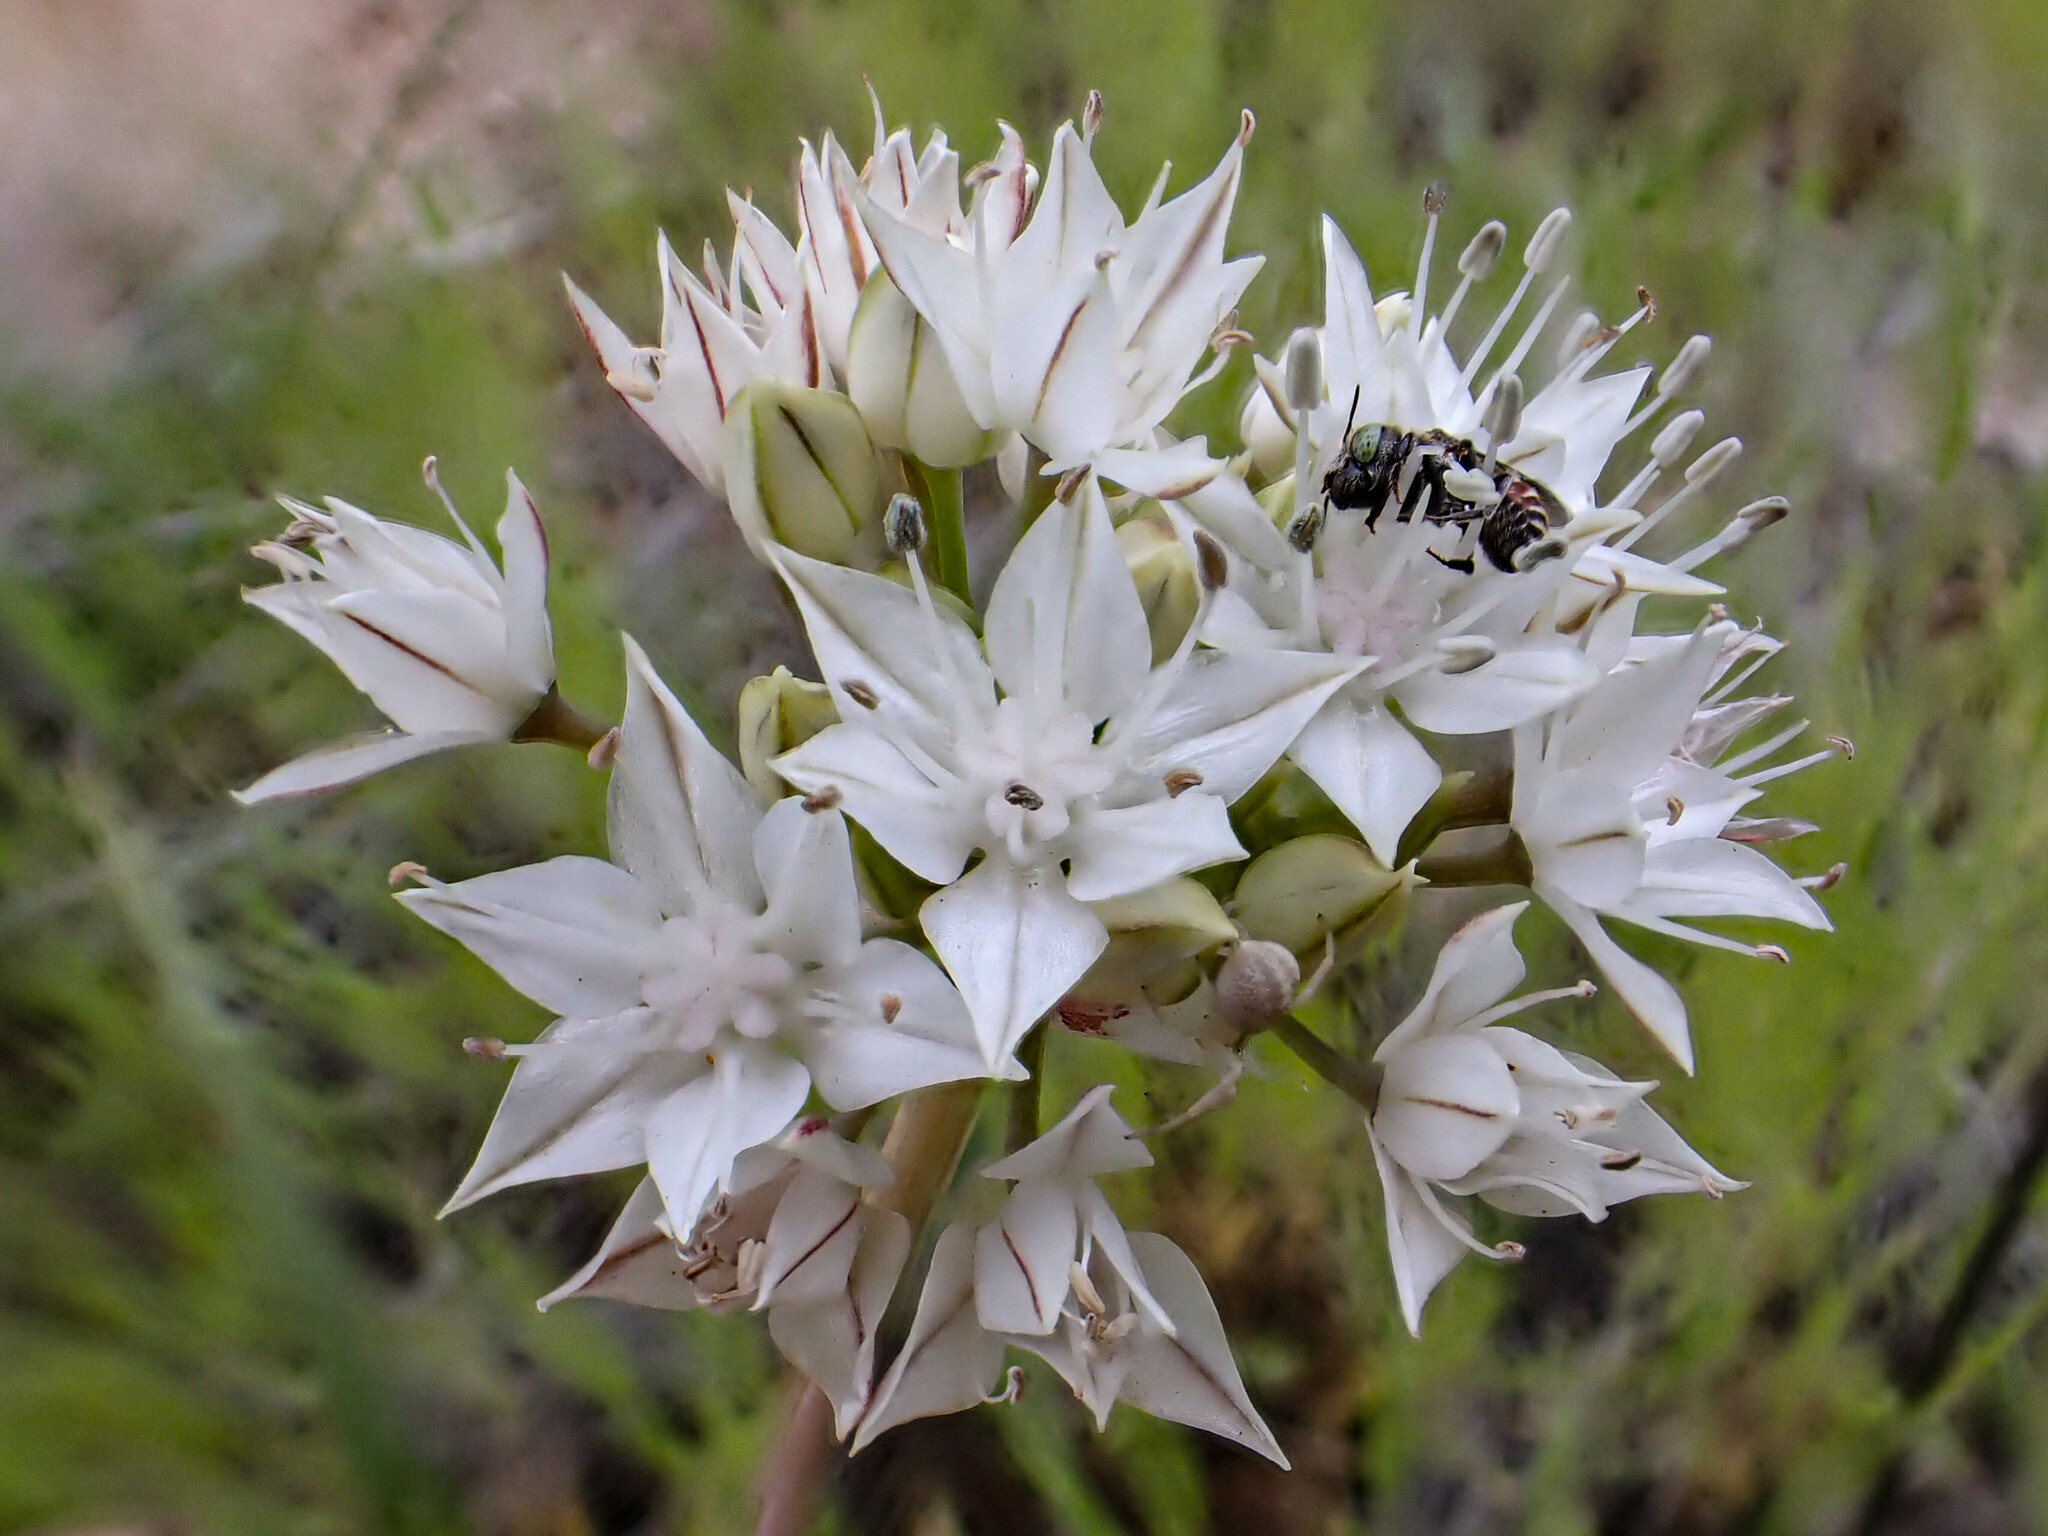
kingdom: Plantae
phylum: Tracheophyta
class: Liliopsida
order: Asparagales
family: Amaryllidaceae
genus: Allium
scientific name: Allium haematochiton
